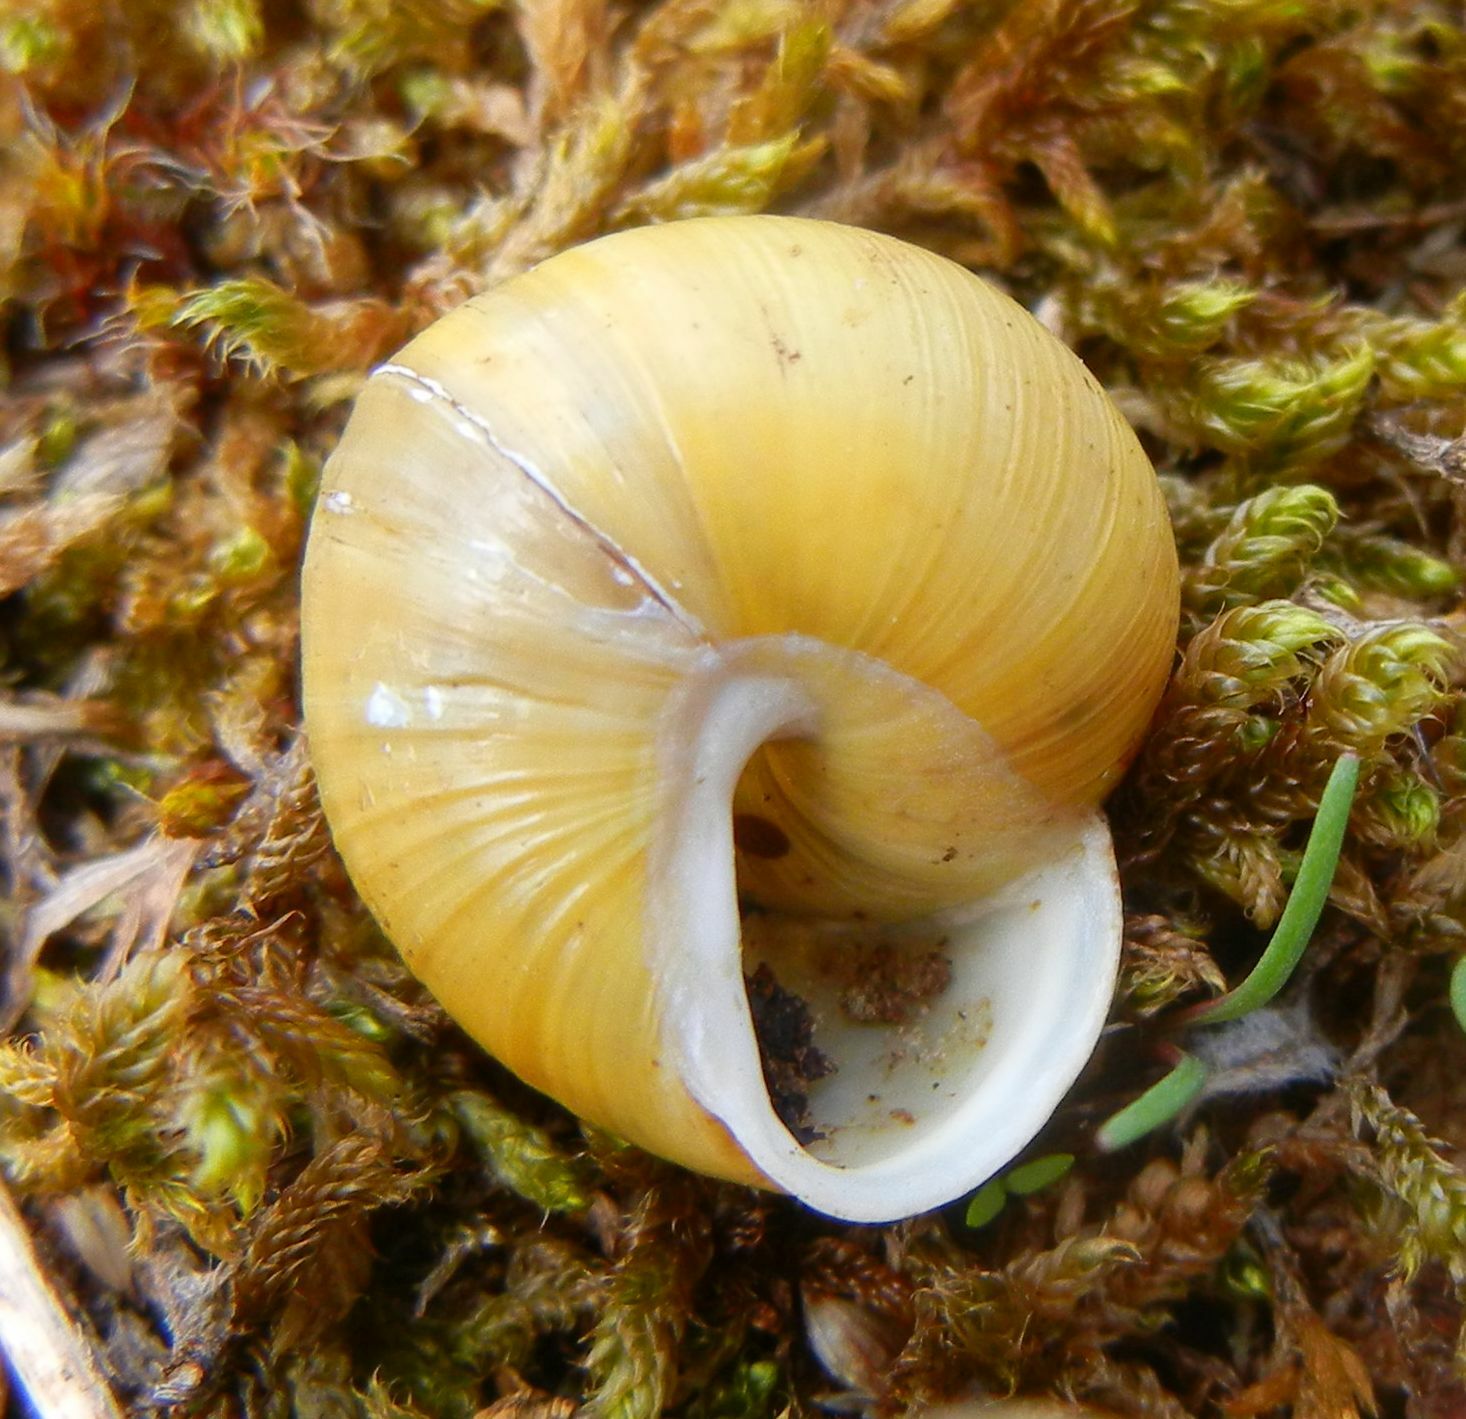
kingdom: Animalia
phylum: Mollusca
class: Gastropoda
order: Stylommatophora
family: Helicidae
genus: Cepaea
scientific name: Cepaea hortensis
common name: White-lip gardensnail
